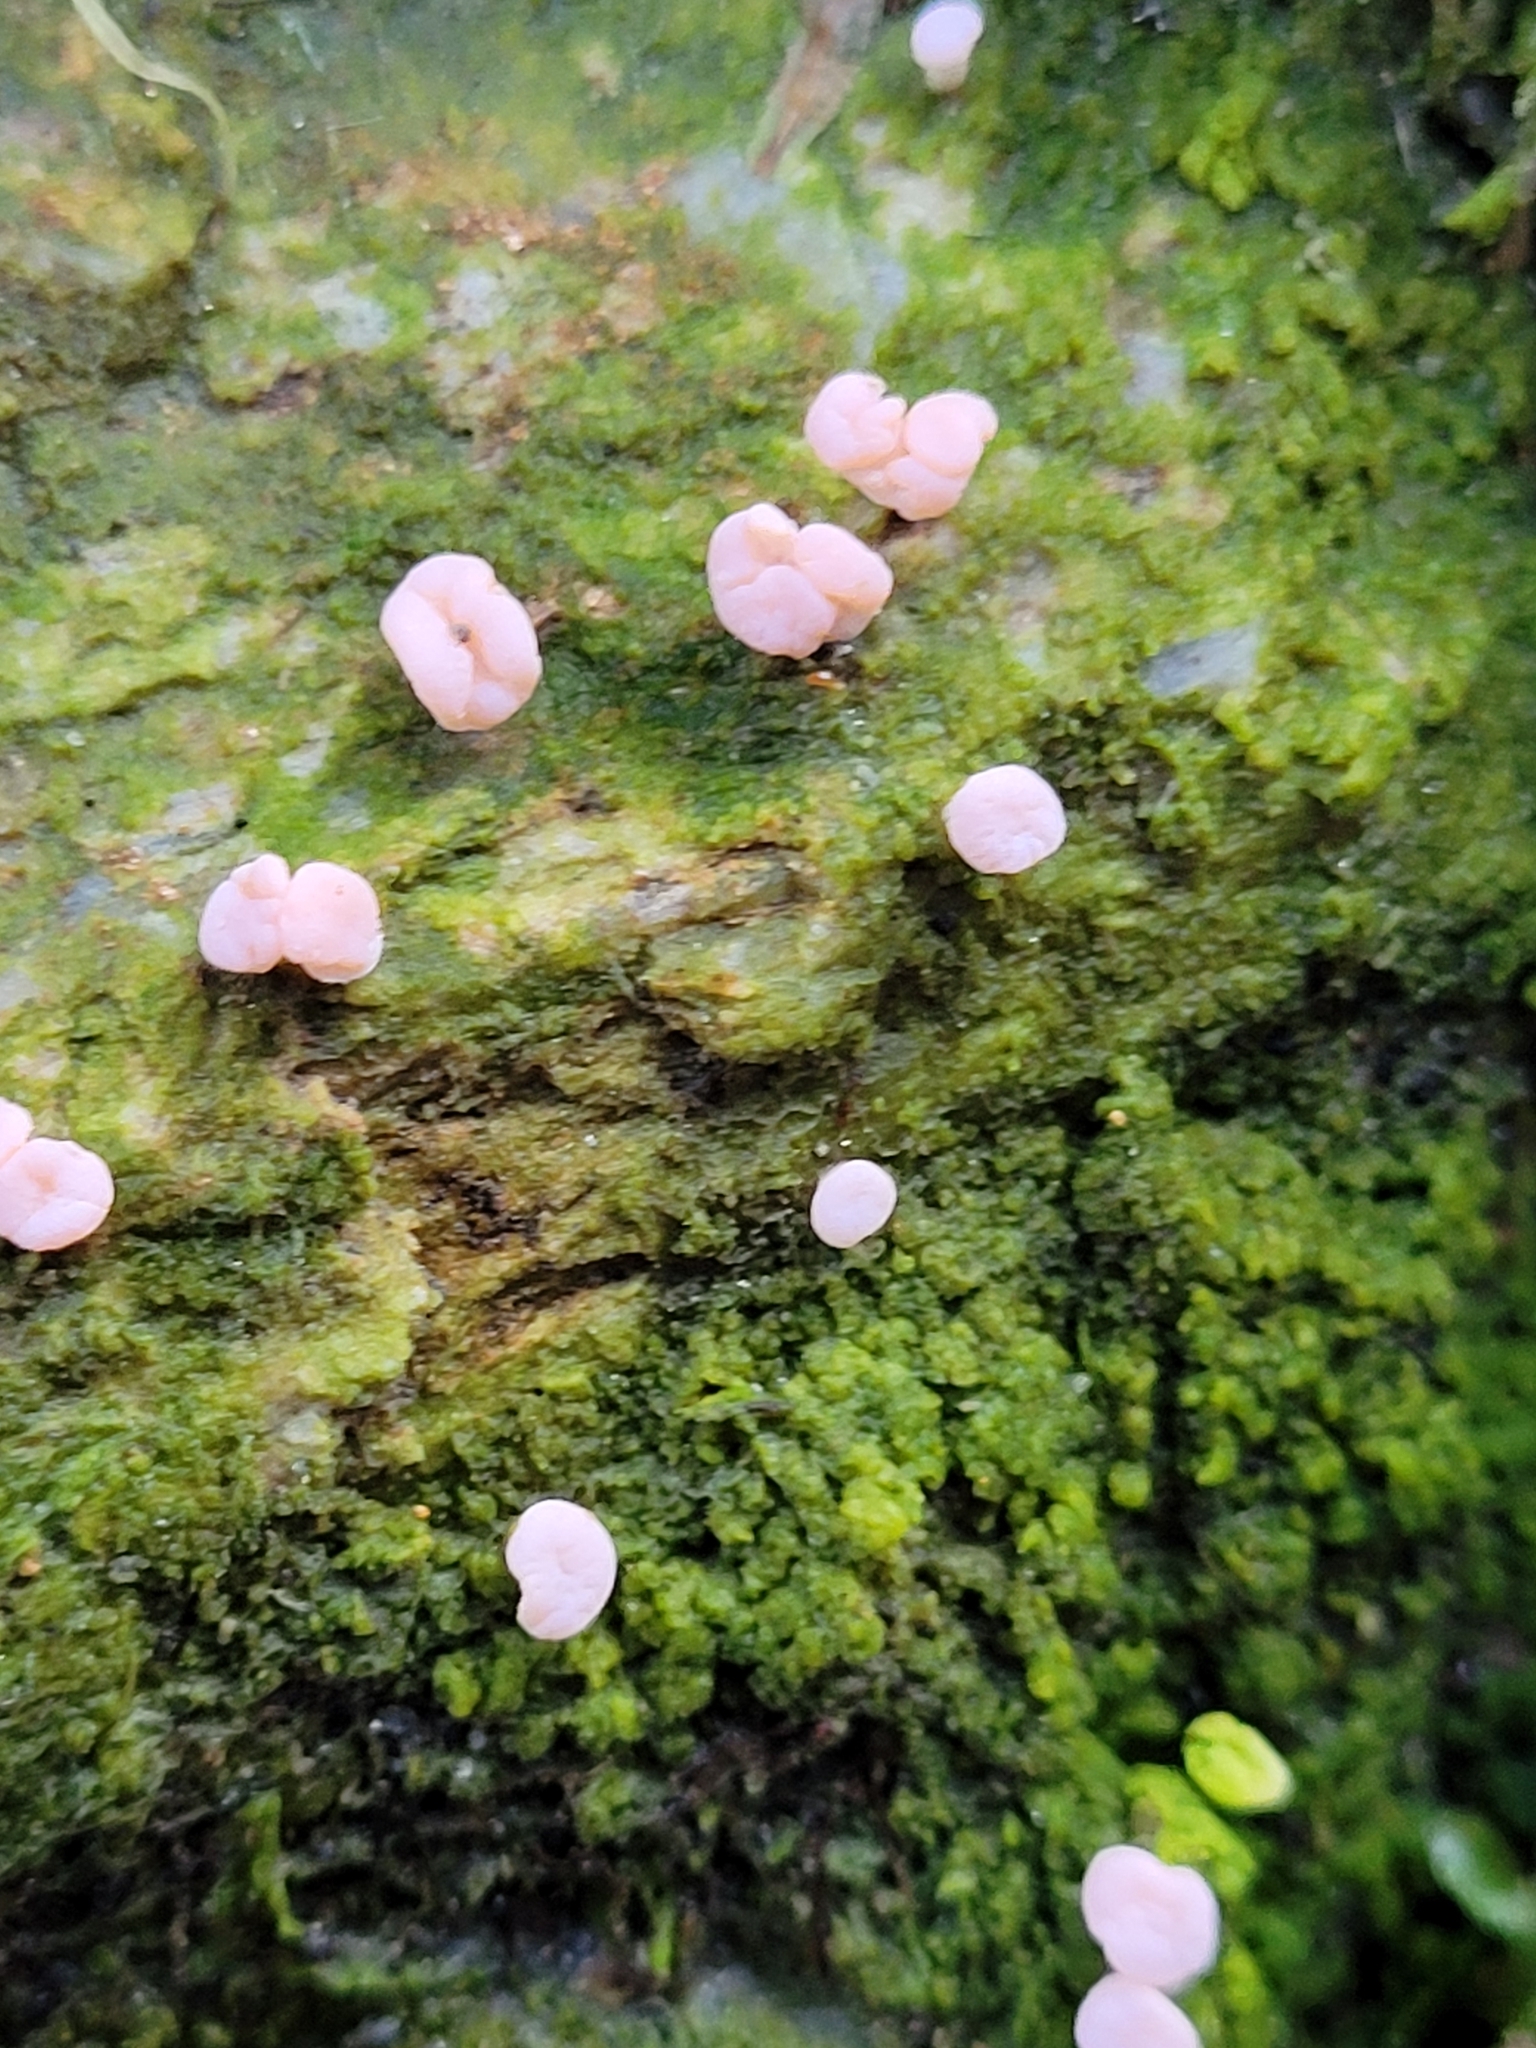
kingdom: Fungi
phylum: Ascomycota
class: Lecanoromycetes
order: Pertusariales
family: Icmadophilaceae
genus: Dibaeis
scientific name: Dibaeis absoluta
